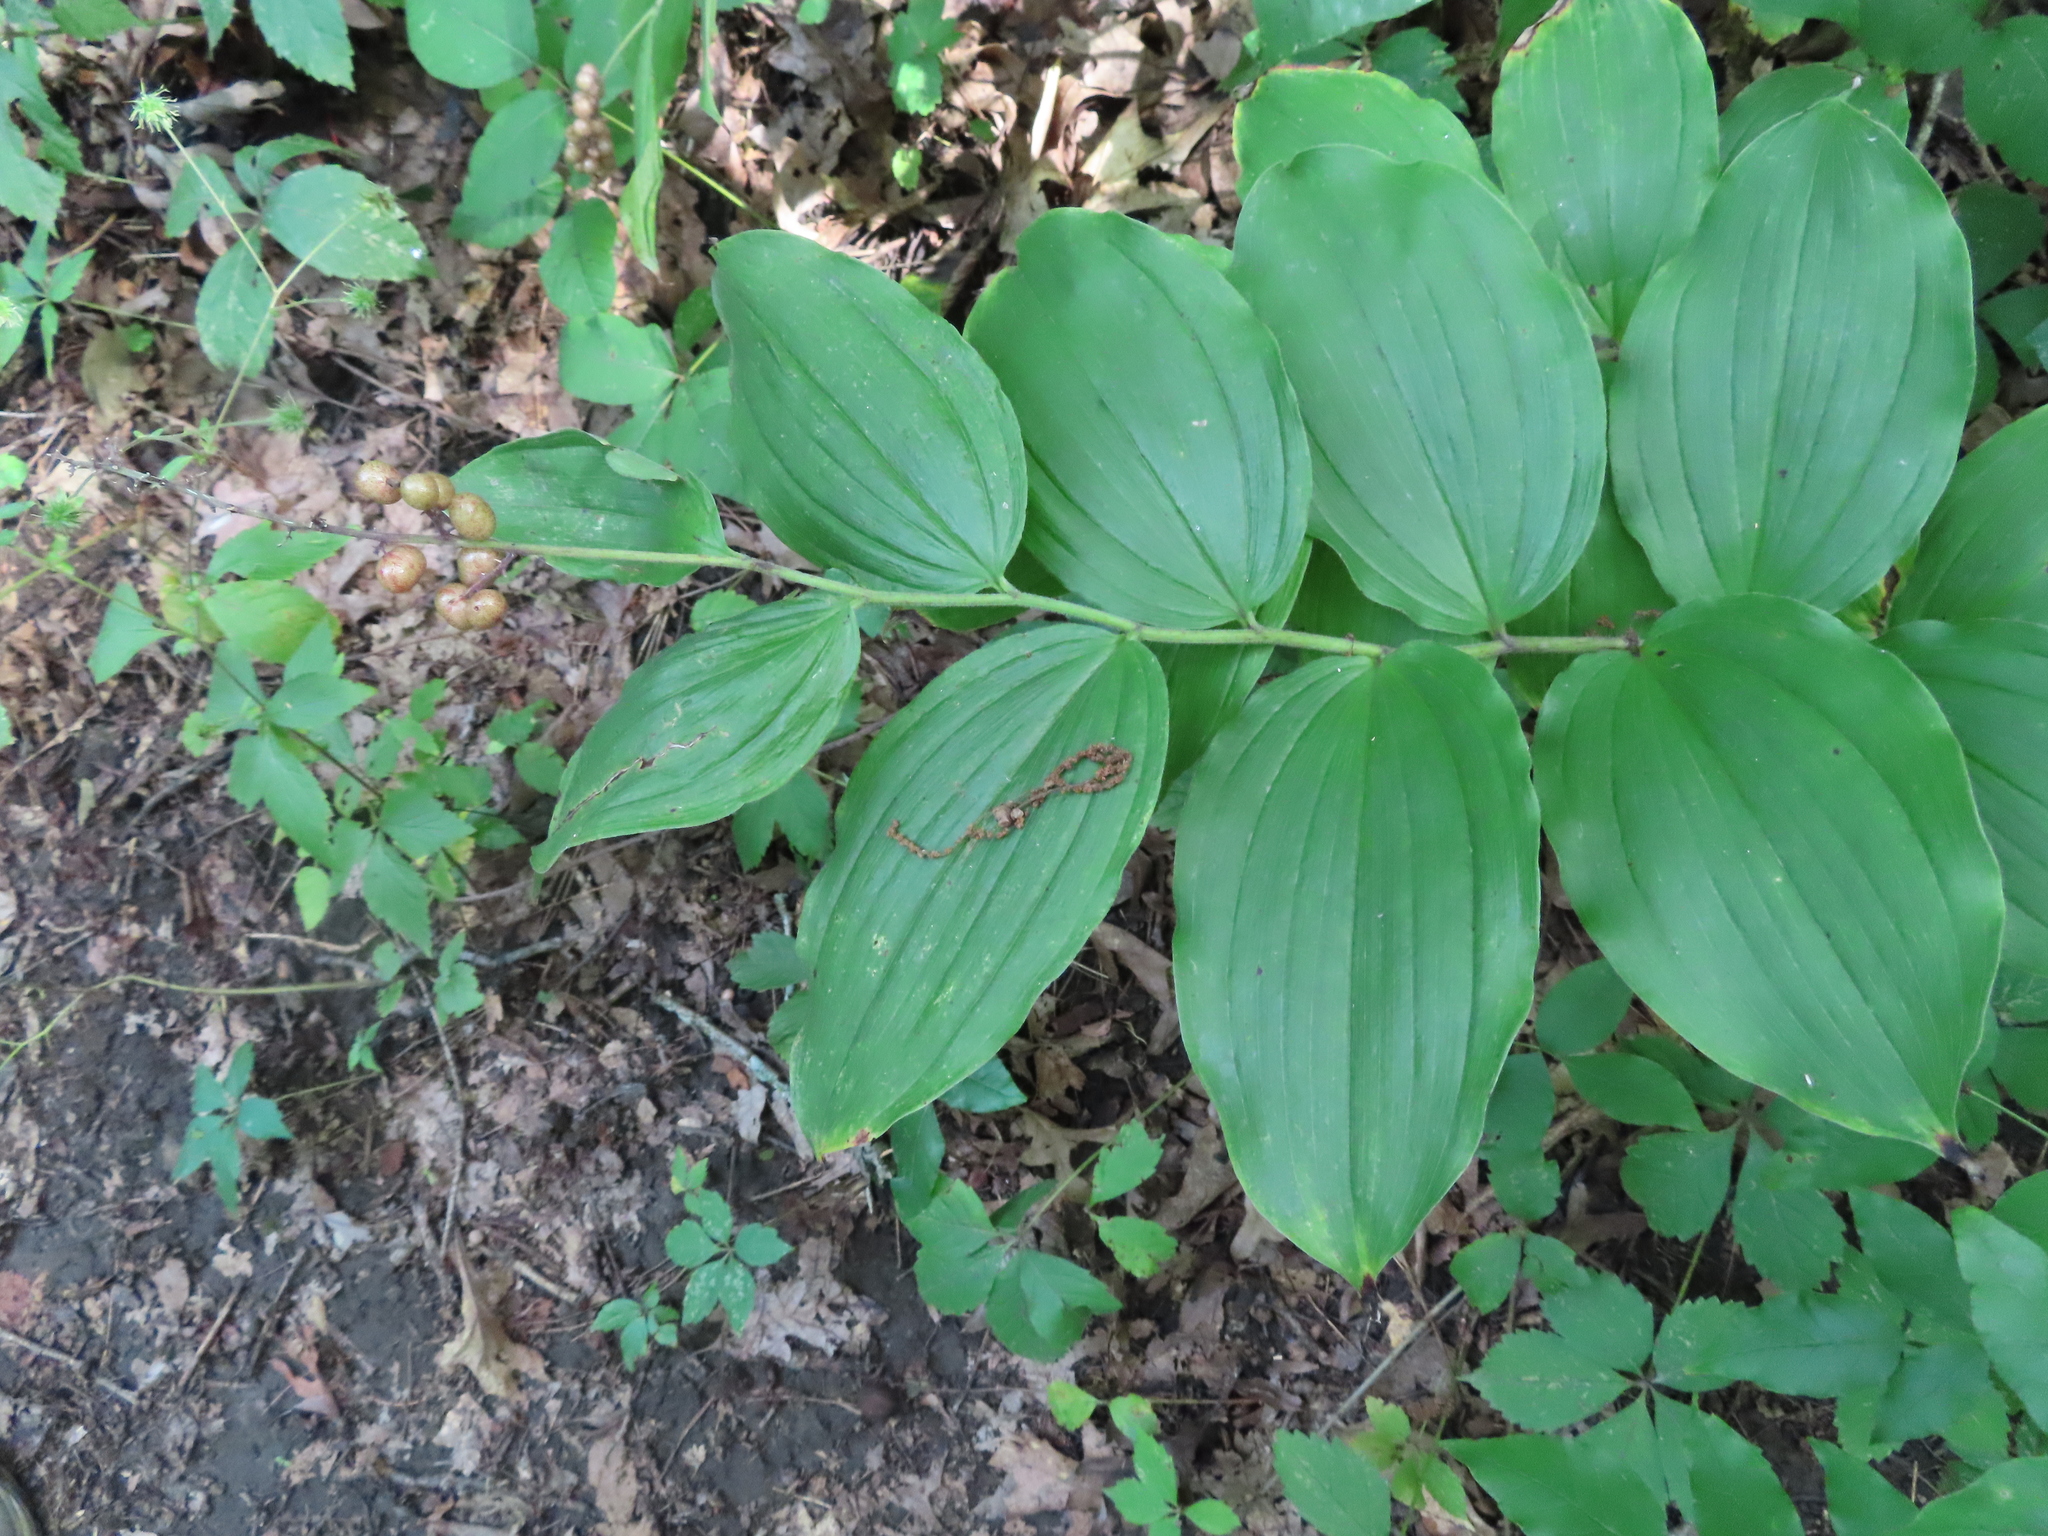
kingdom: Plantae
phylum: Tracheophyta
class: Liliopsida
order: Asparagales
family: Asparagaceae
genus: Maianthemum
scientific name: Maianthemum racemosum
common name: False spikenard
